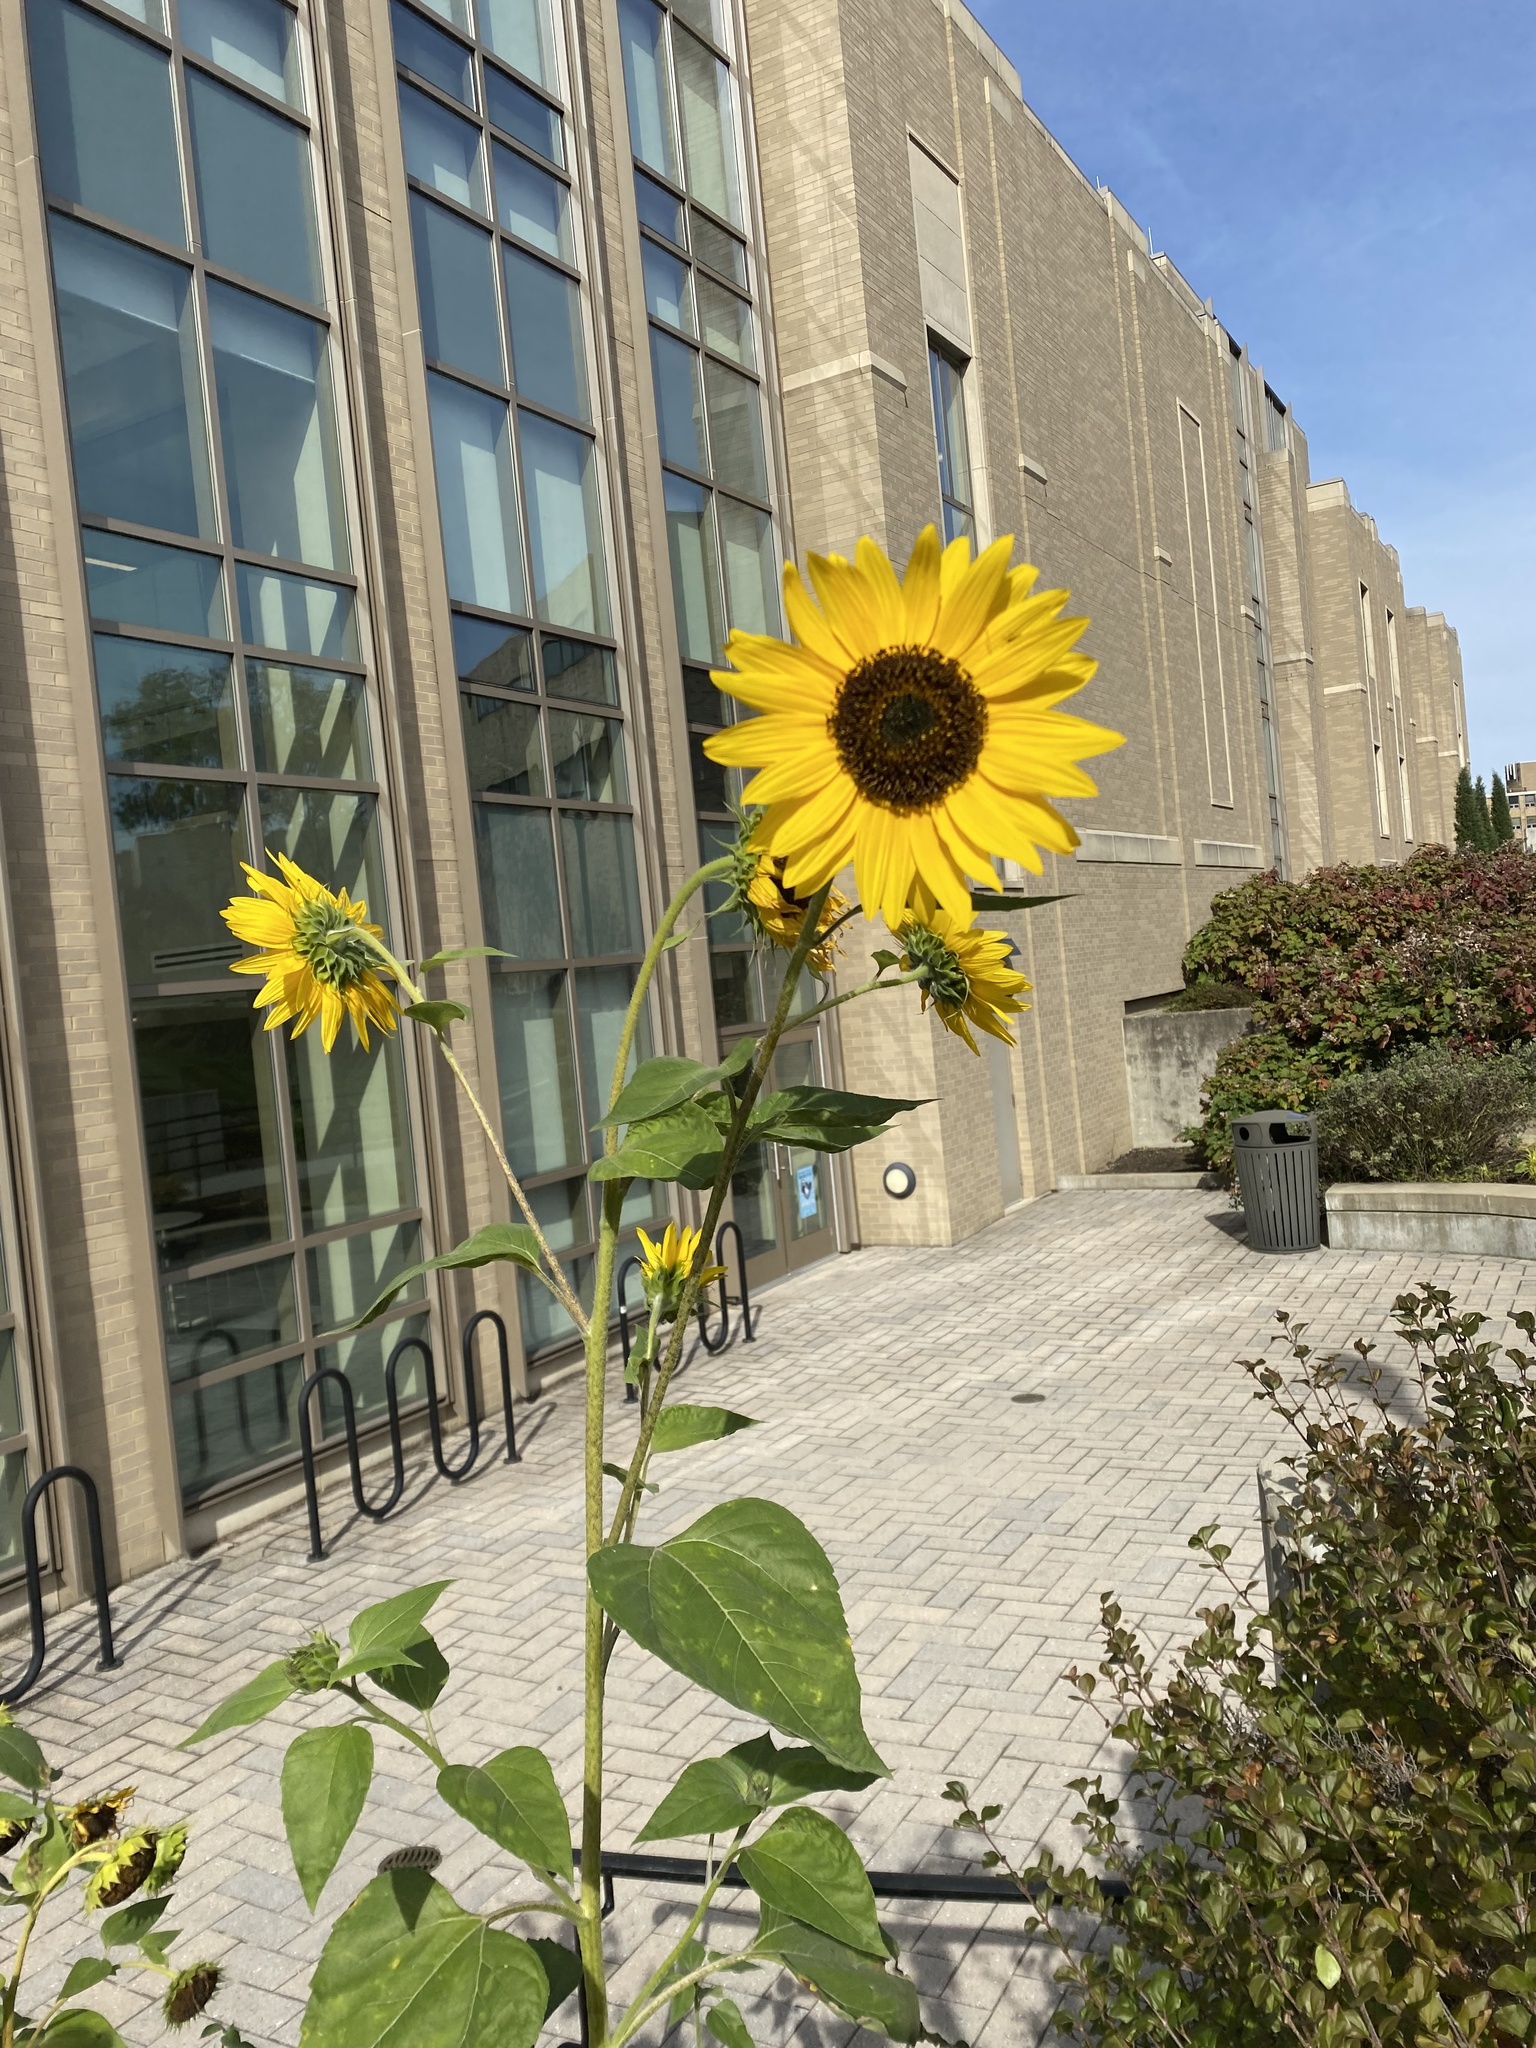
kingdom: Plantae
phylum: Tracheophyta
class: Magnoliopsida
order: Asterales
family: Asteraceae
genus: Helianthus
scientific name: Helianthus annuus
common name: Sunflower
